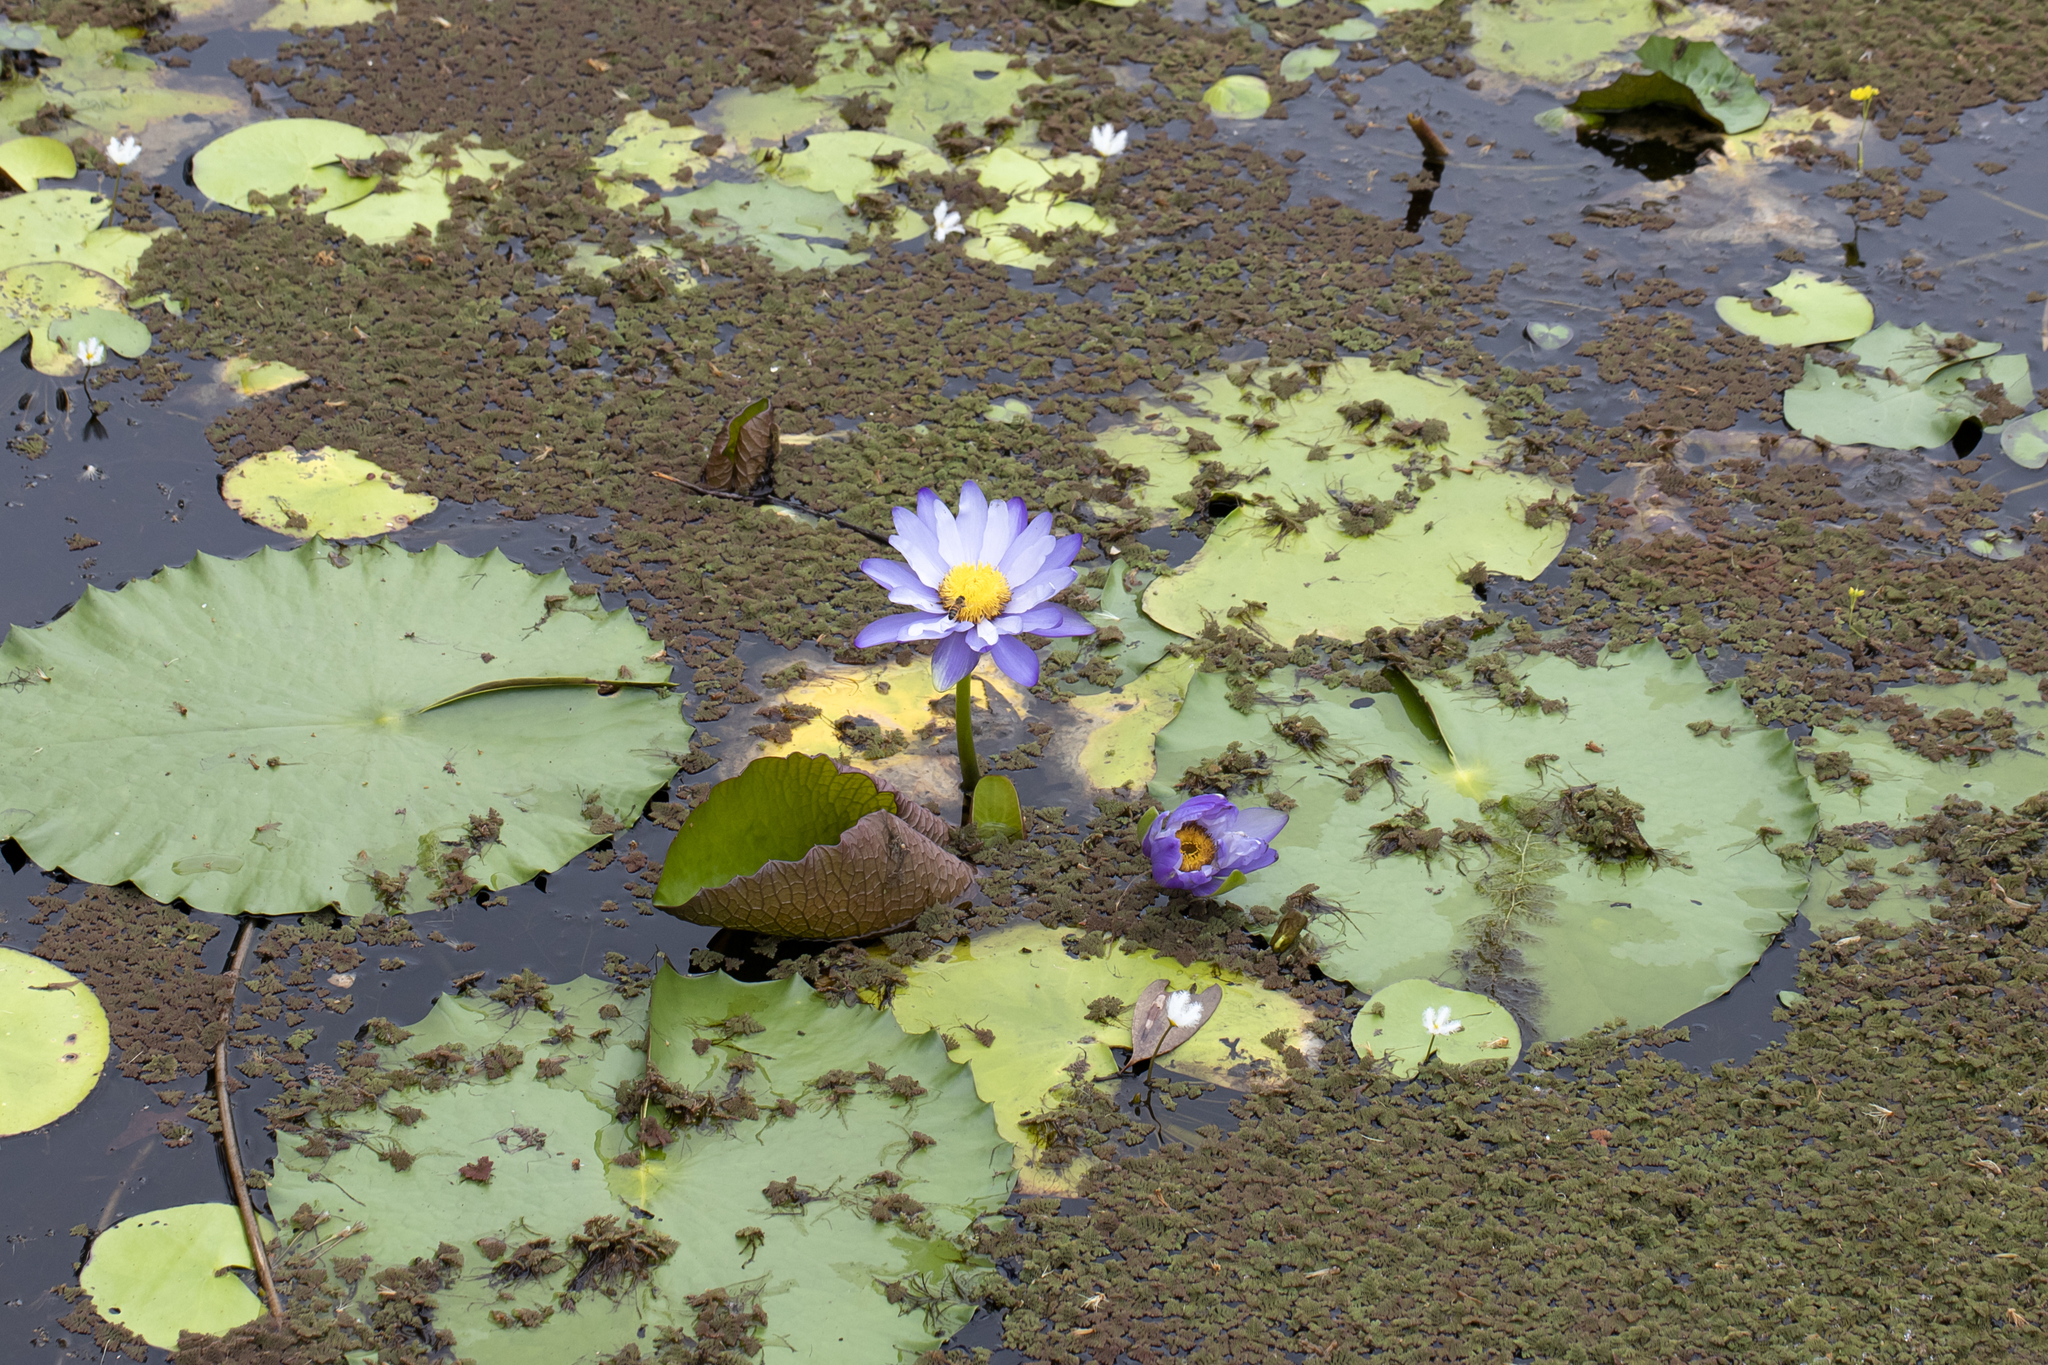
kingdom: Plantae
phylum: Tracheophyta
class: Magnoliopsida
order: Nymphaeales
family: Nymphaeaceae
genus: Nymphaea
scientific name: Nymphaea gigantea
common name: Giant water-lily
